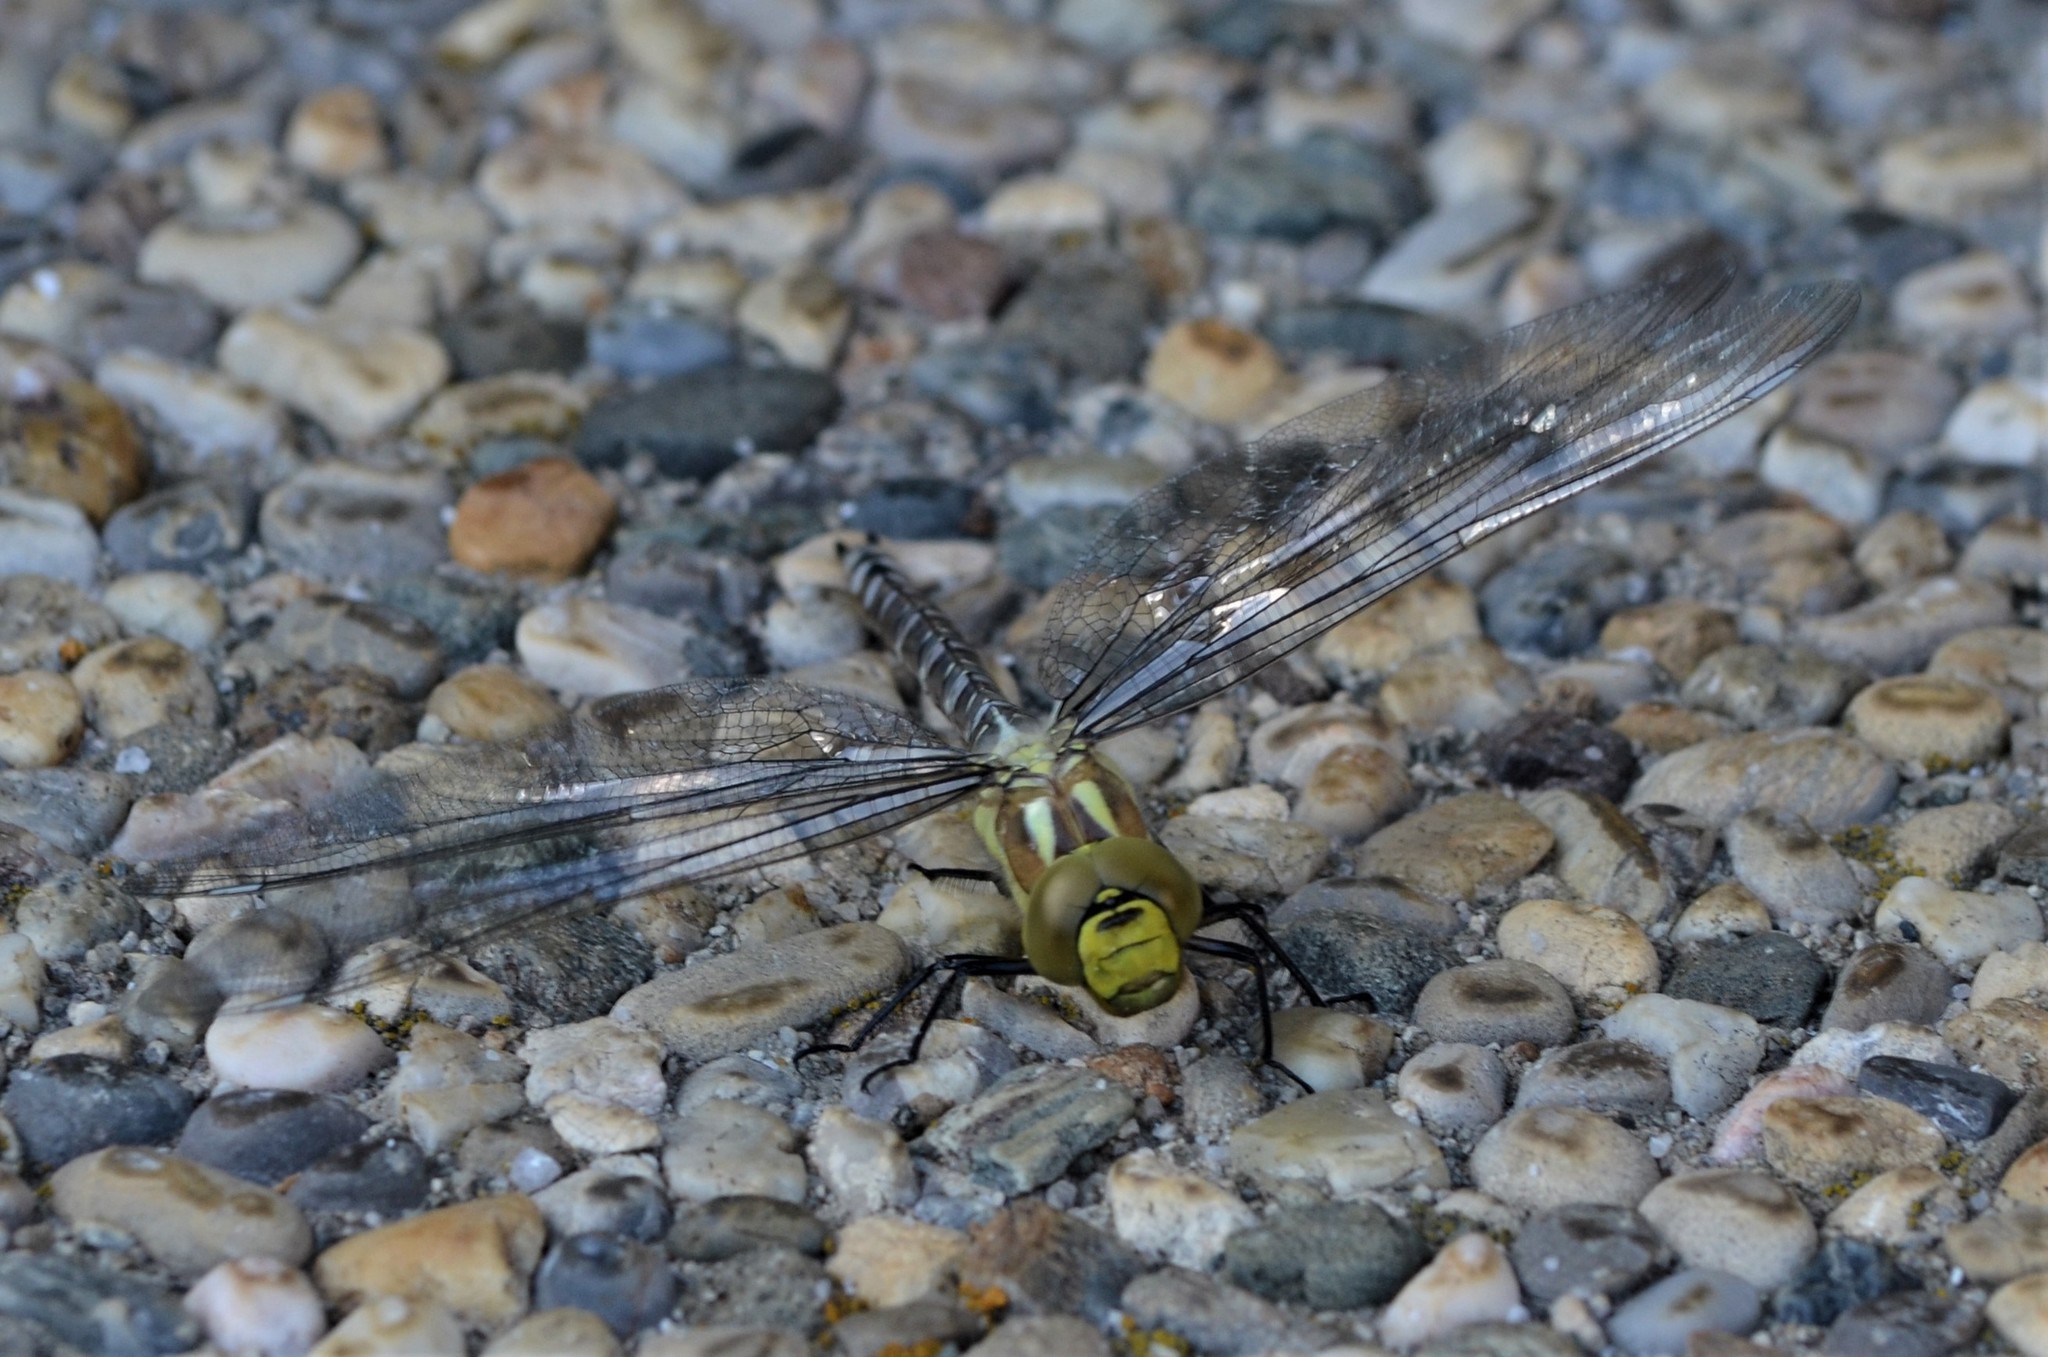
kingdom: Animalia
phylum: Arthropoda
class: Insecta
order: Odonata
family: Aeshnidae
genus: Aeshna
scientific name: Aeshna cyanea
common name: Southern hawker
